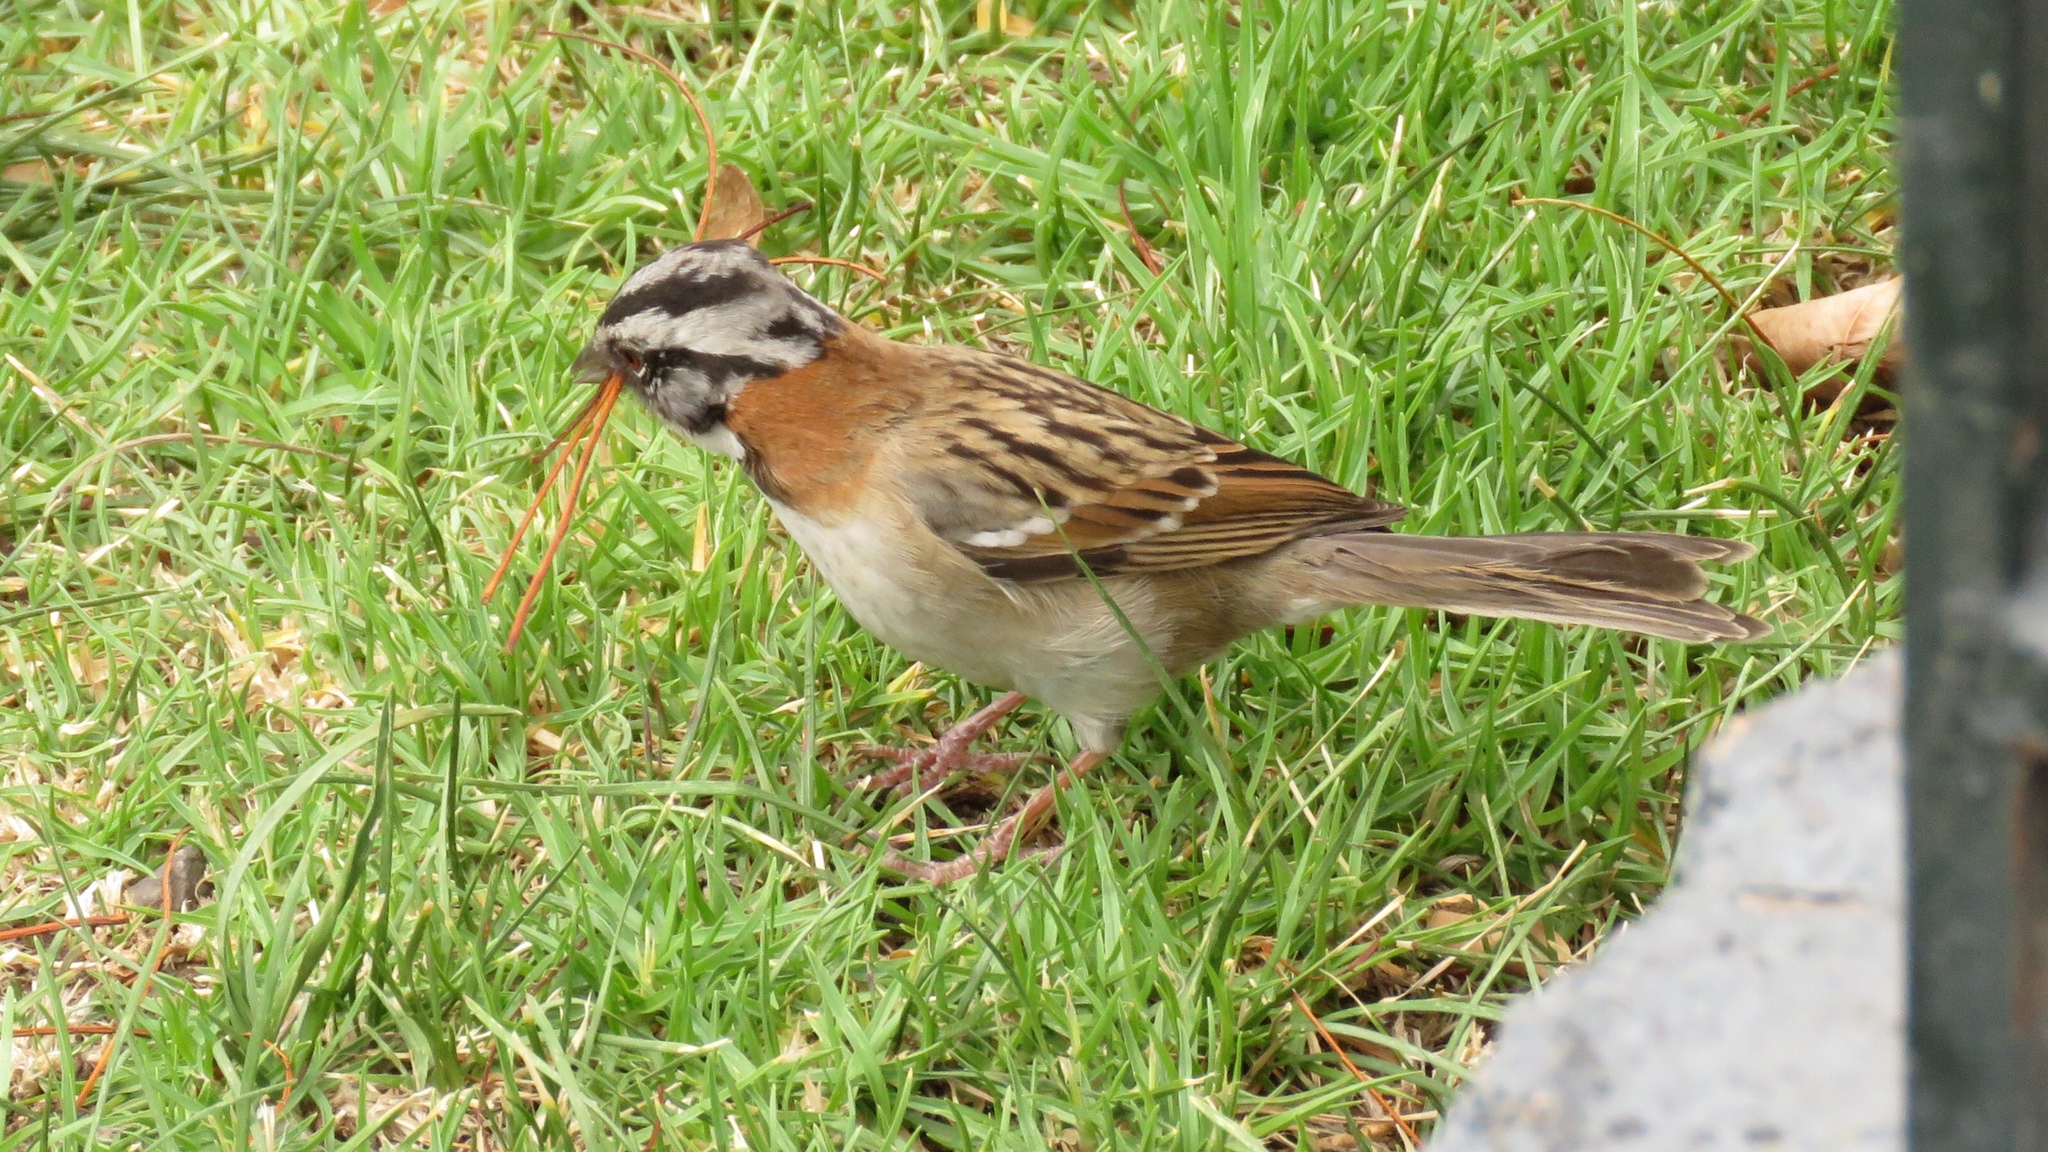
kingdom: Animalia
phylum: Chordata
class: Aves
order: Passeriformes
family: Passerellidae
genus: Zonotrichia
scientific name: Zonotrichia capensis
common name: Rufous-collared sparrow
